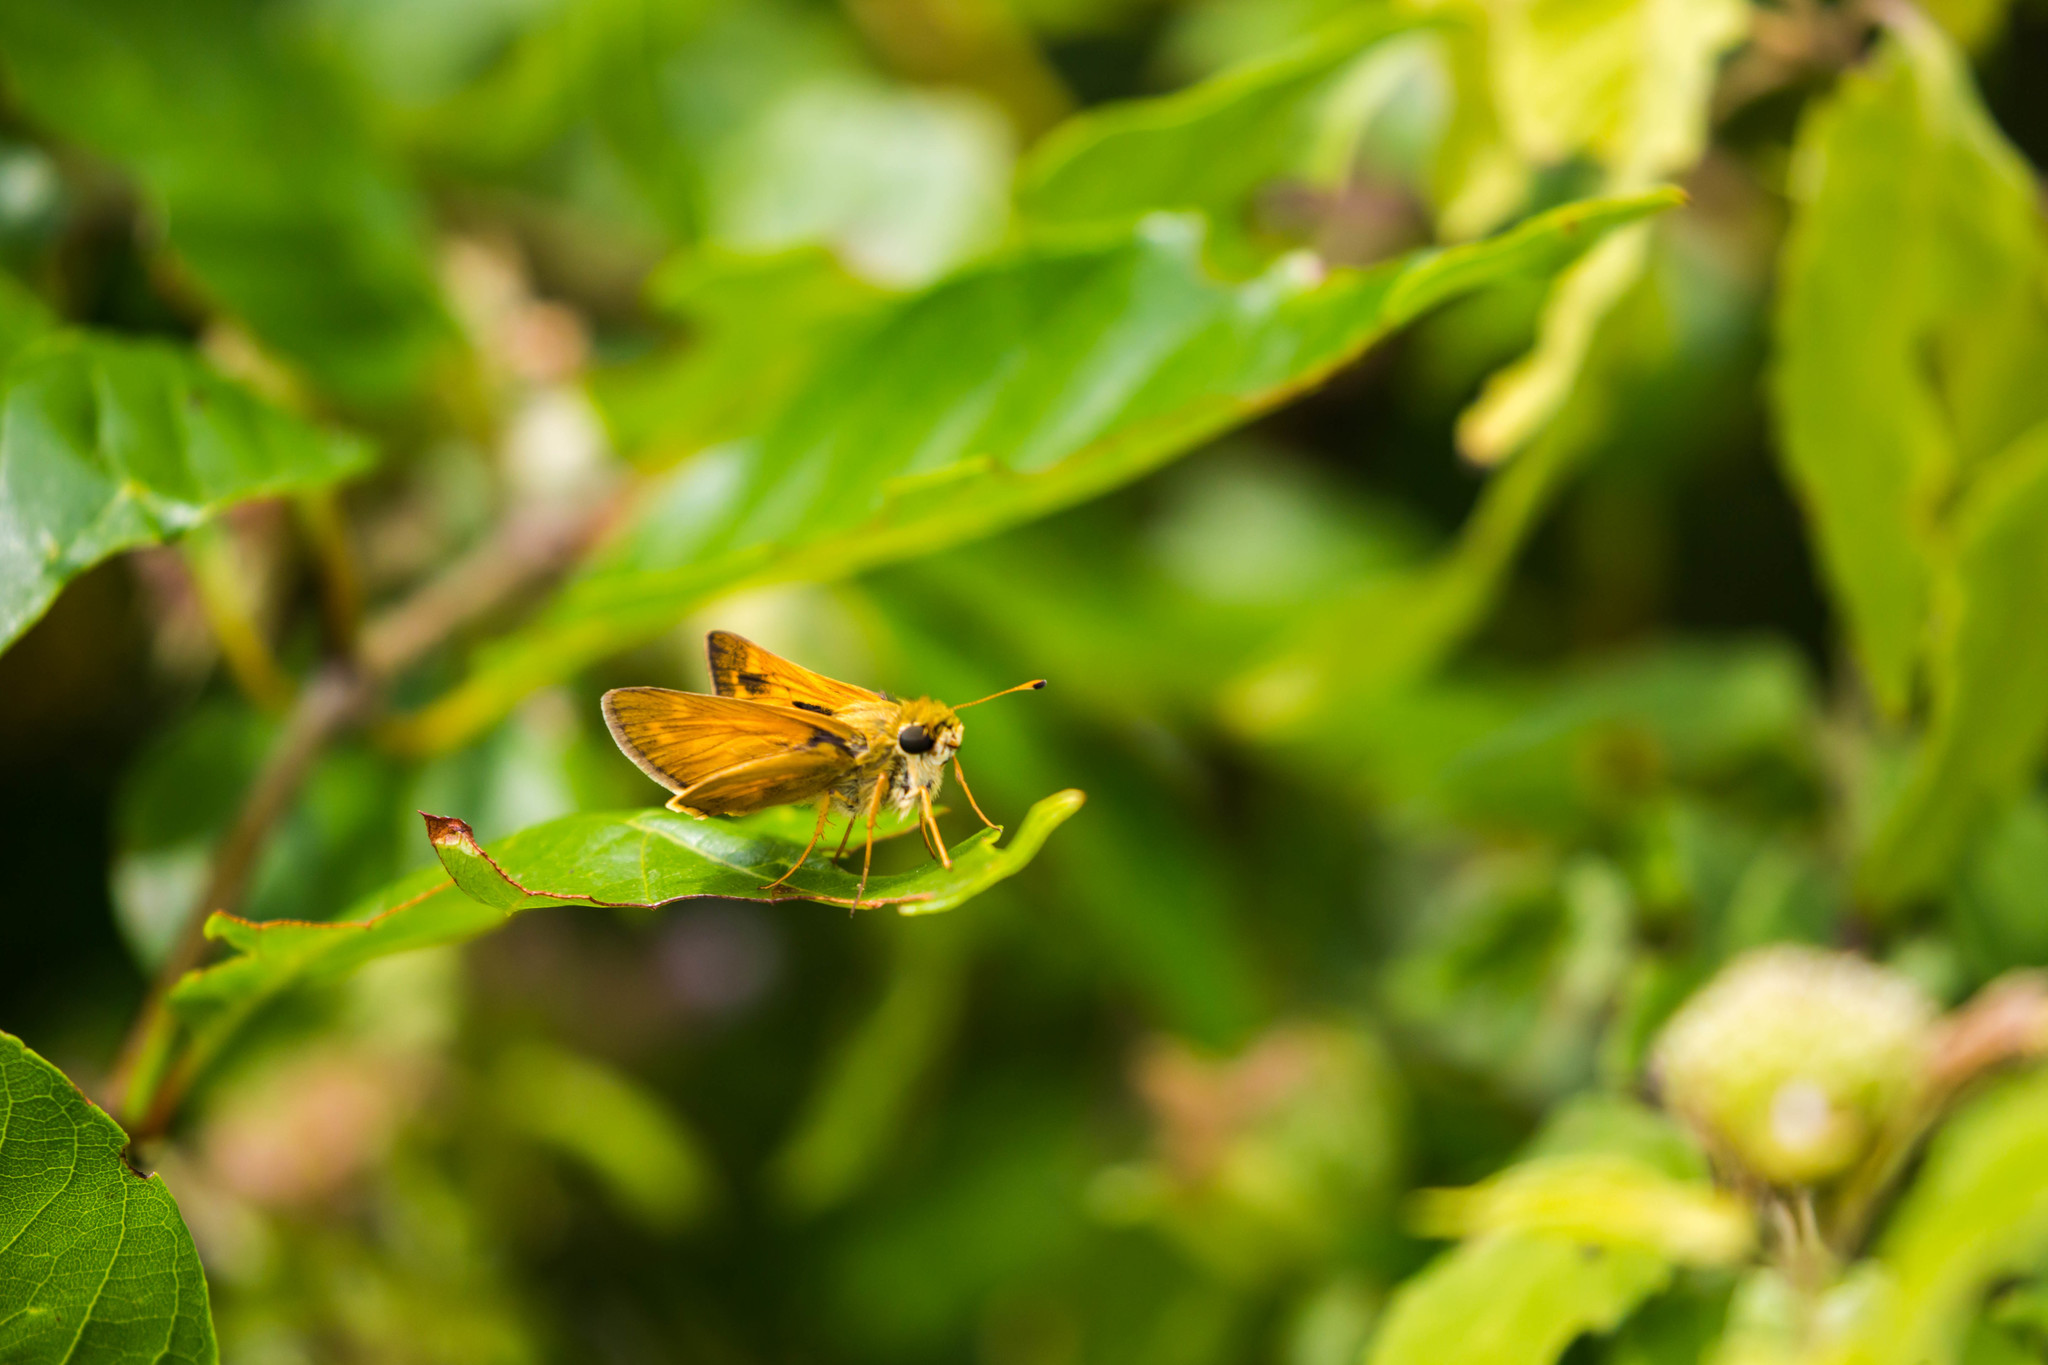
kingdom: Animalia
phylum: Arthropoda
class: Insecta
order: Lepidoptera
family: Hesperiidae
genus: Atalopedes
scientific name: Atalopedes
